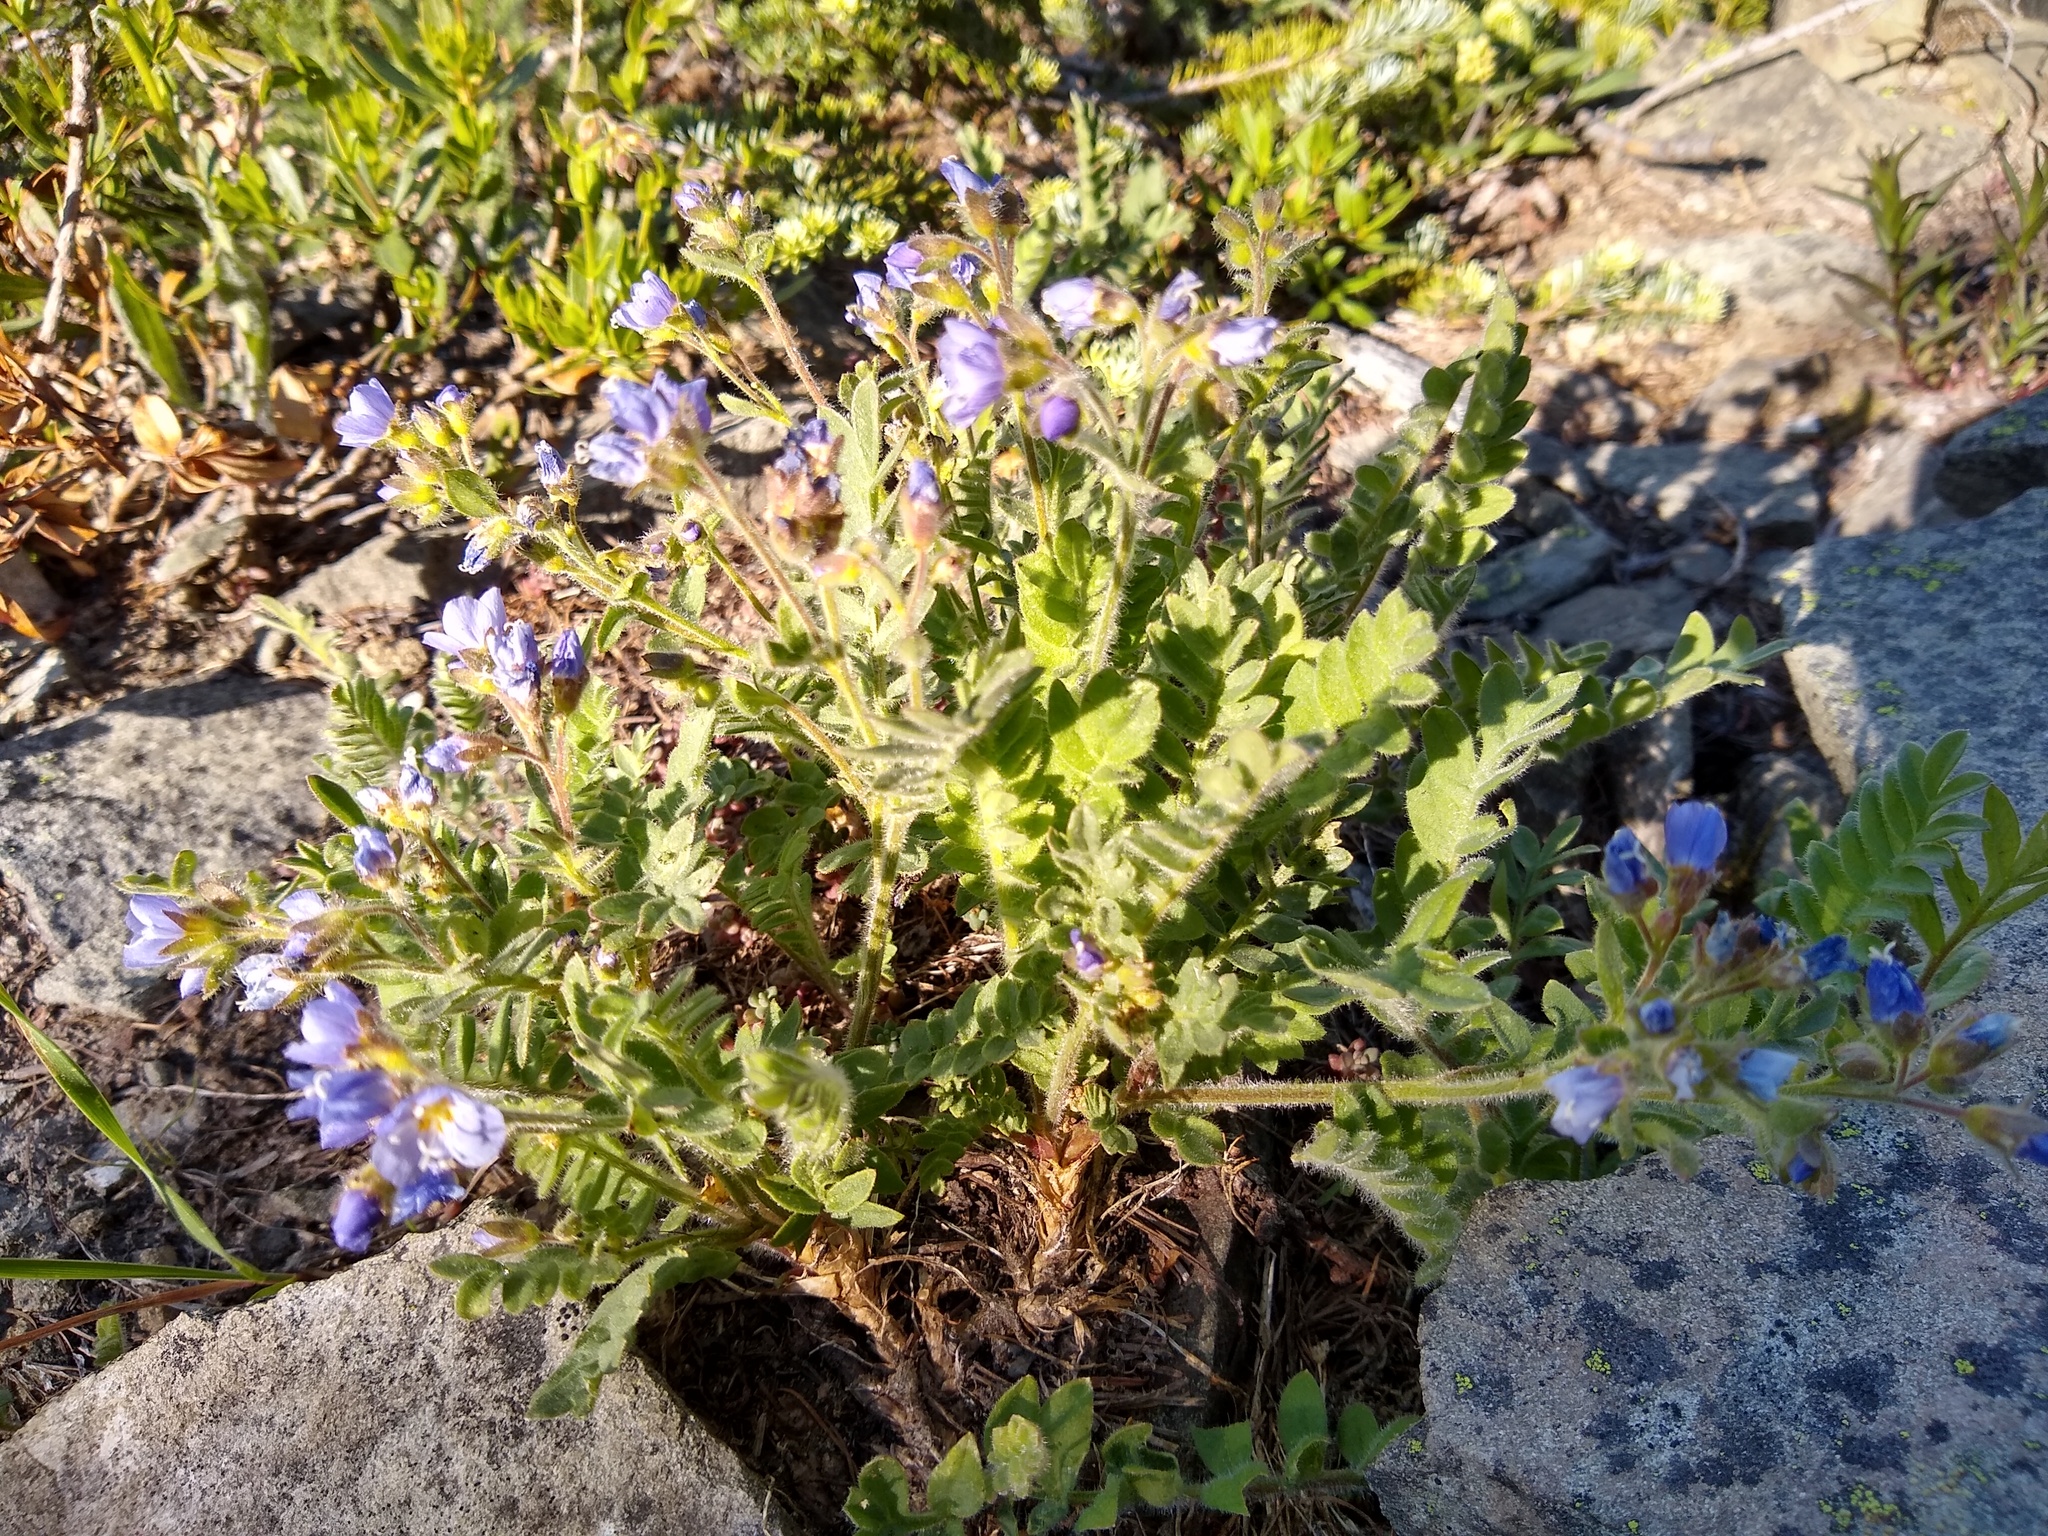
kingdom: Plantae
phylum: Tracheophyta
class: Magnoliopsida
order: Ericales
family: Polemoniaceae
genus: Polemonium
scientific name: Polemonium californicum
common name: California jacob's ladder
